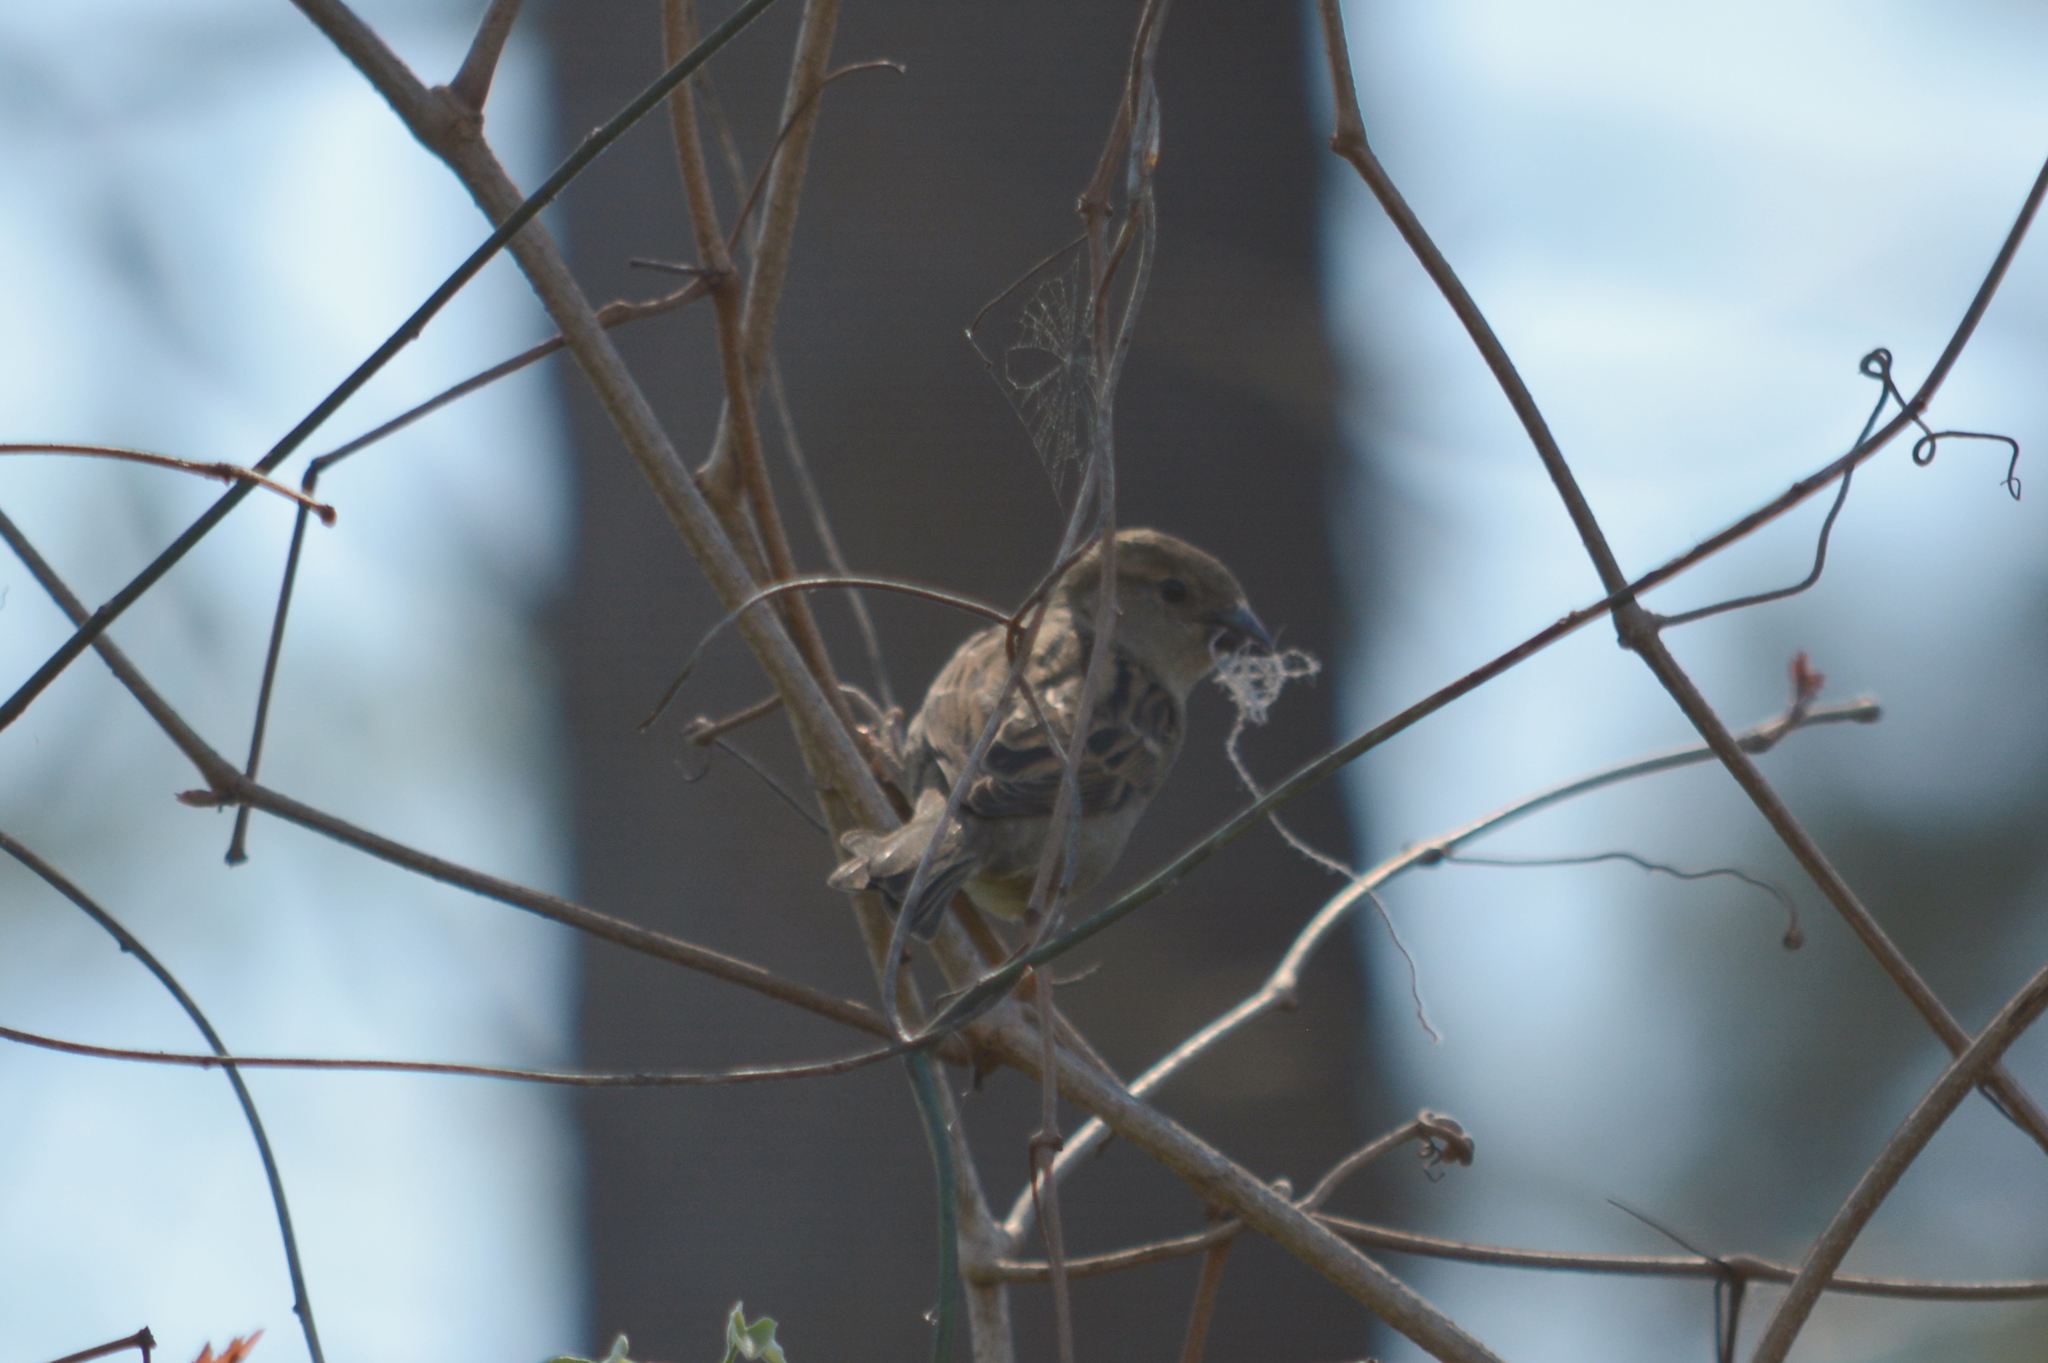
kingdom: Animalia
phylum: Chordata
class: Aves
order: Passeriformes
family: Passeridae
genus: Passer
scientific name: Passer domesticus
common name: House sparrow
